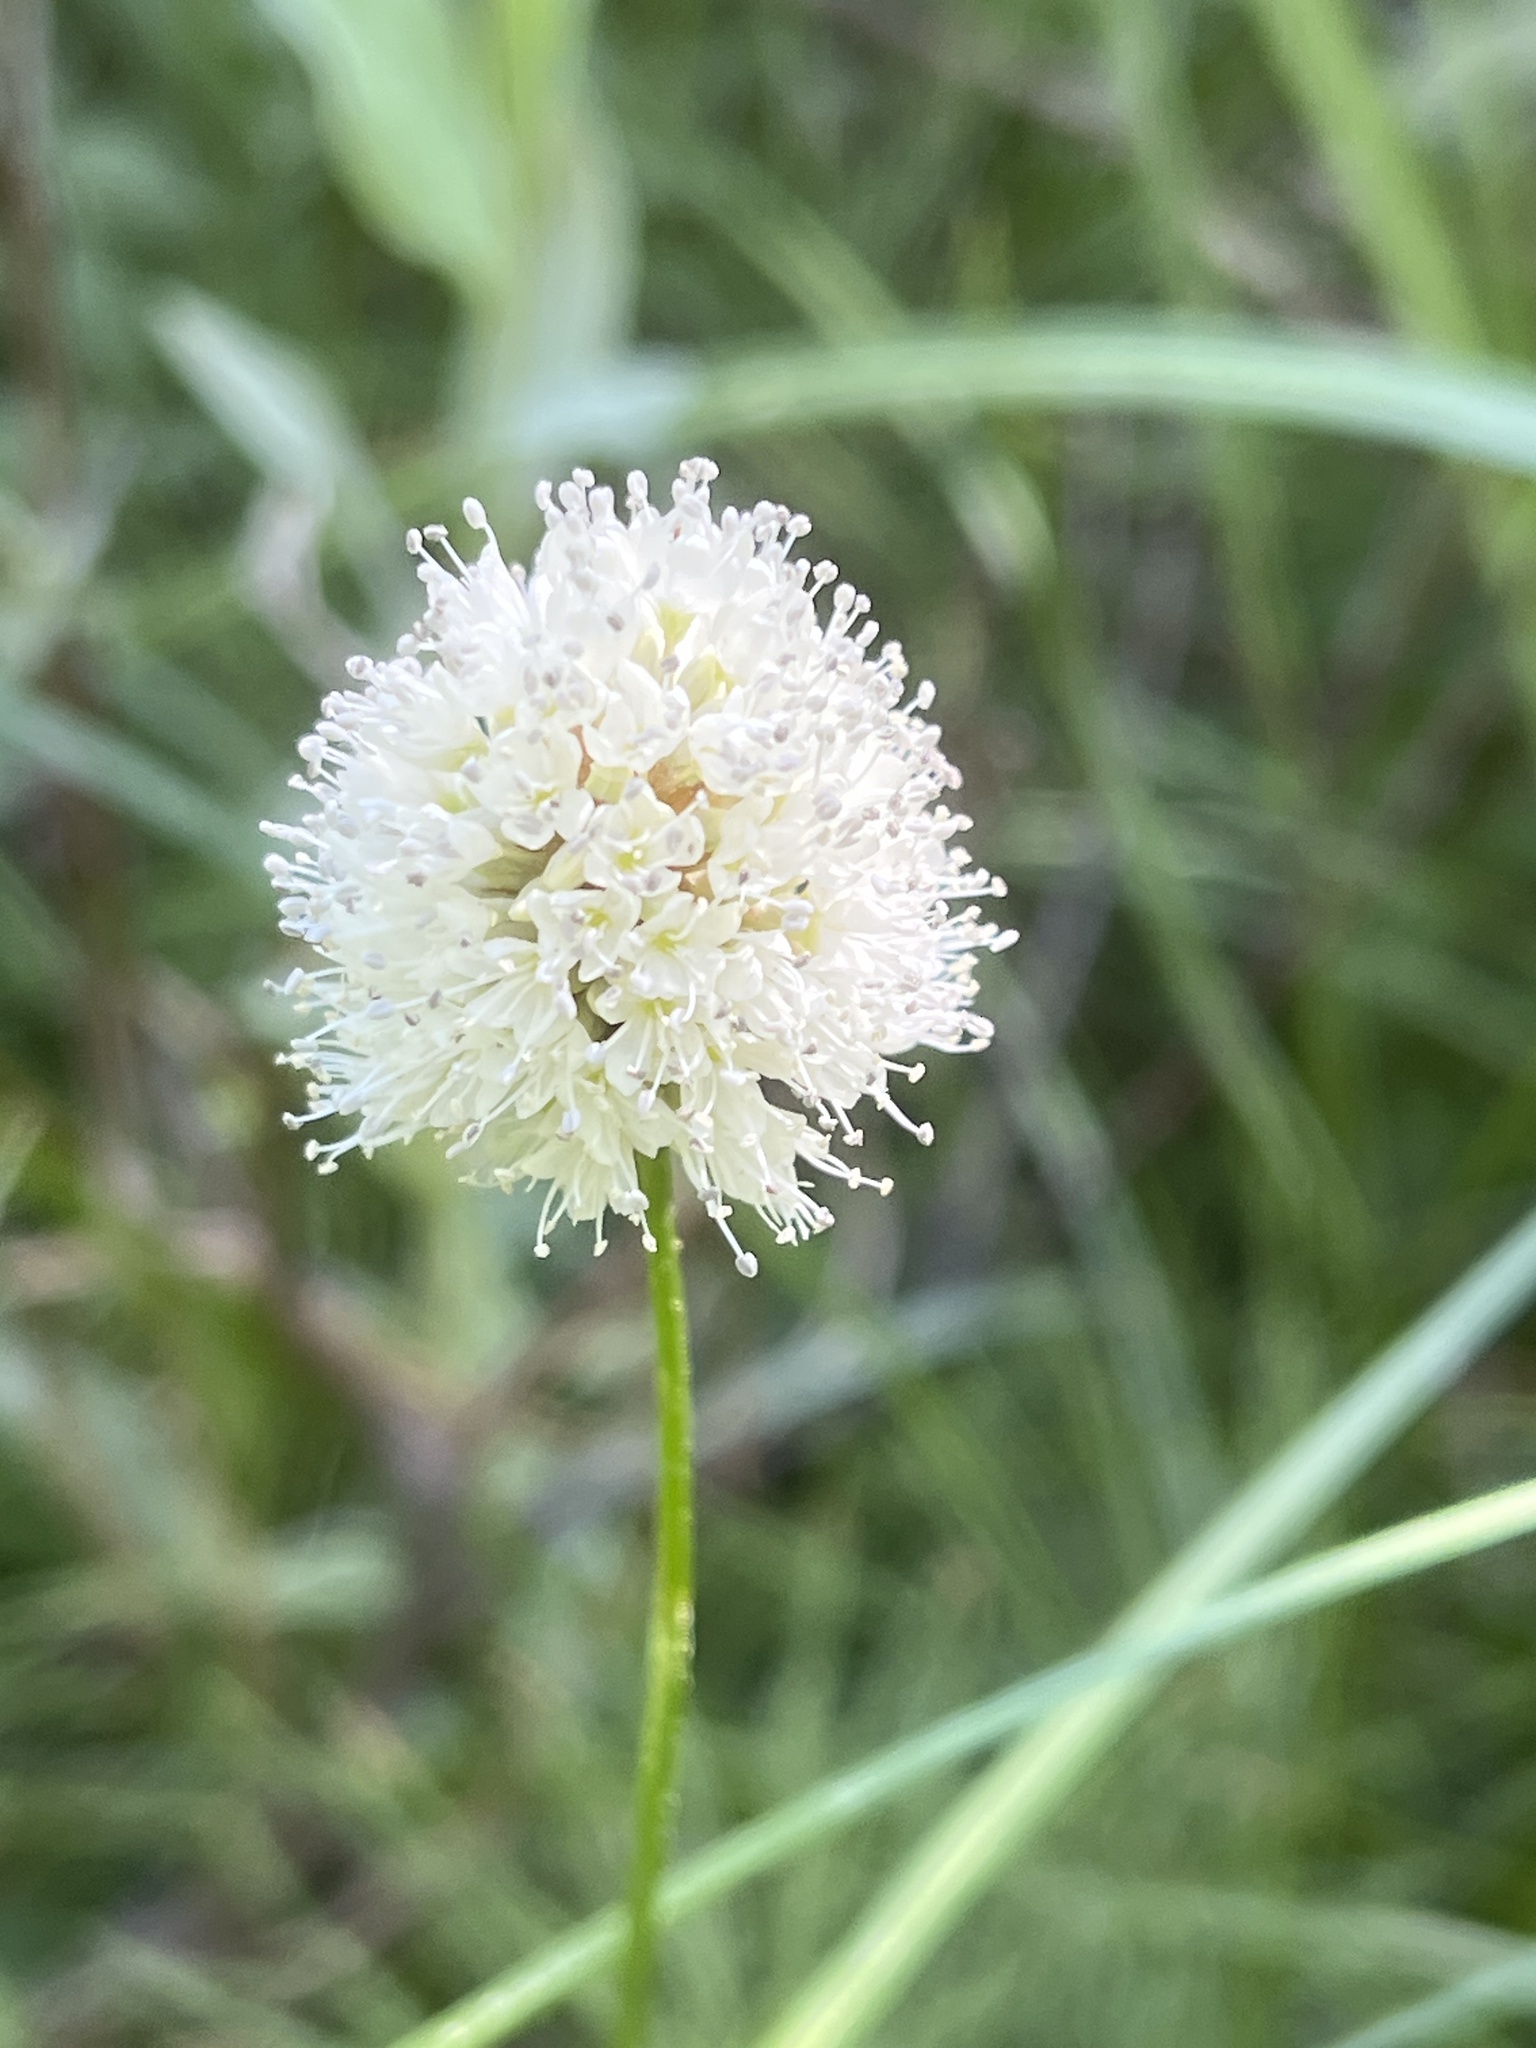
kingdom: Plantae
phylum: Tracheophyta
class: Magnoliopsida
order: Caryophyllales
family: Polygonaceae
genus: Bistorta
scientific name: Bistorta bistortoides
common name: American bistort
